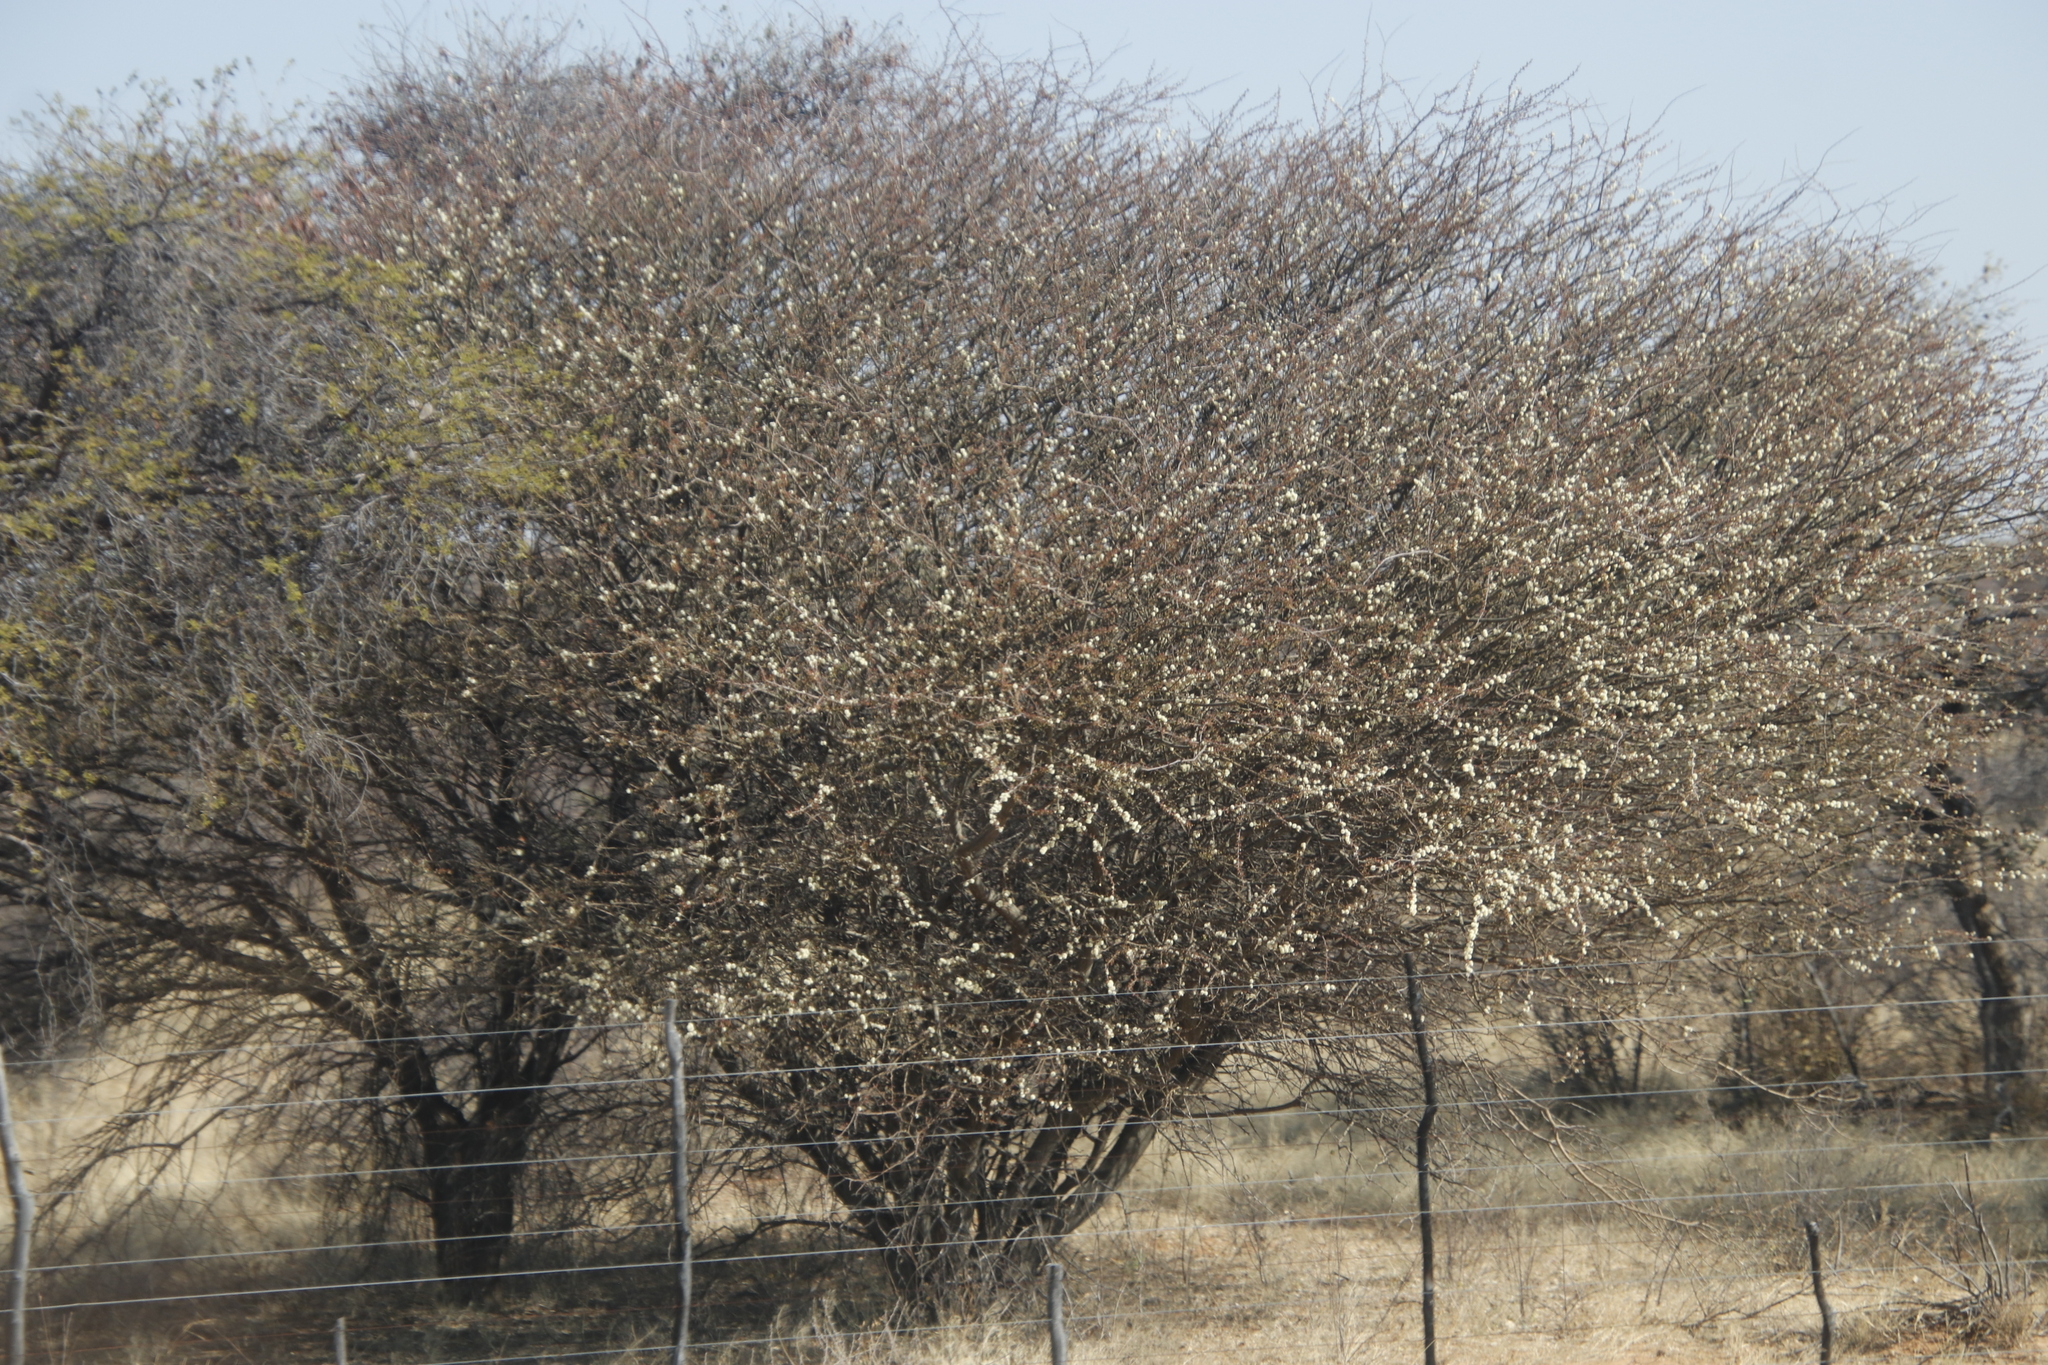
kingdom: Plantae
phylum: Tracheophyta
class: Magnoliopsida
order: Fabales
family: Fabaceae
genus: Senegalia
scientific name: Senegalia mellifera
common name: Hookthorn
